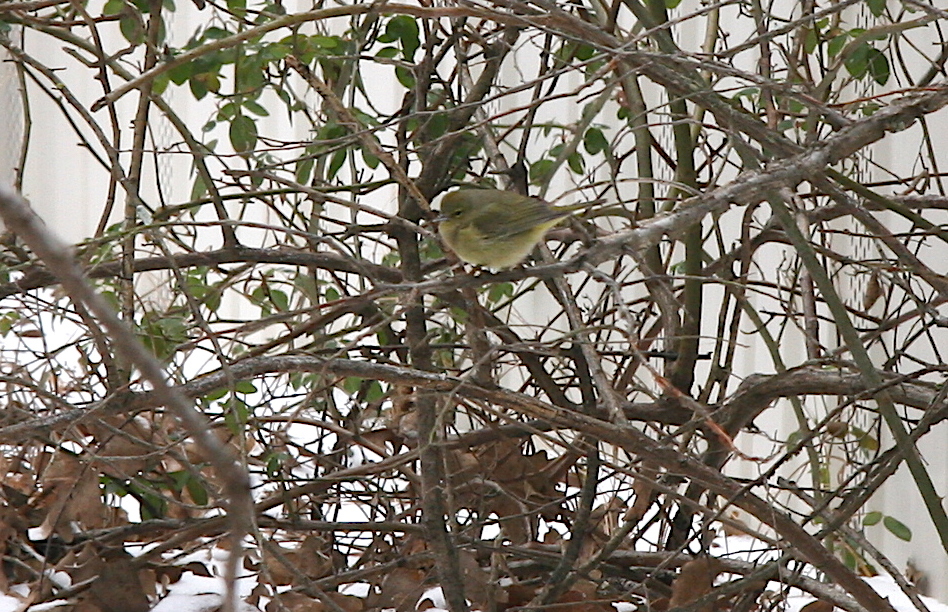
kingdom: Animalia
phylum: Chordata
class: Aves
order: Passeriformes
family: Parulidae
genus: Leiothlypis
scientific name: Leiothlypis celata
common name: Orange-crowned warbler
